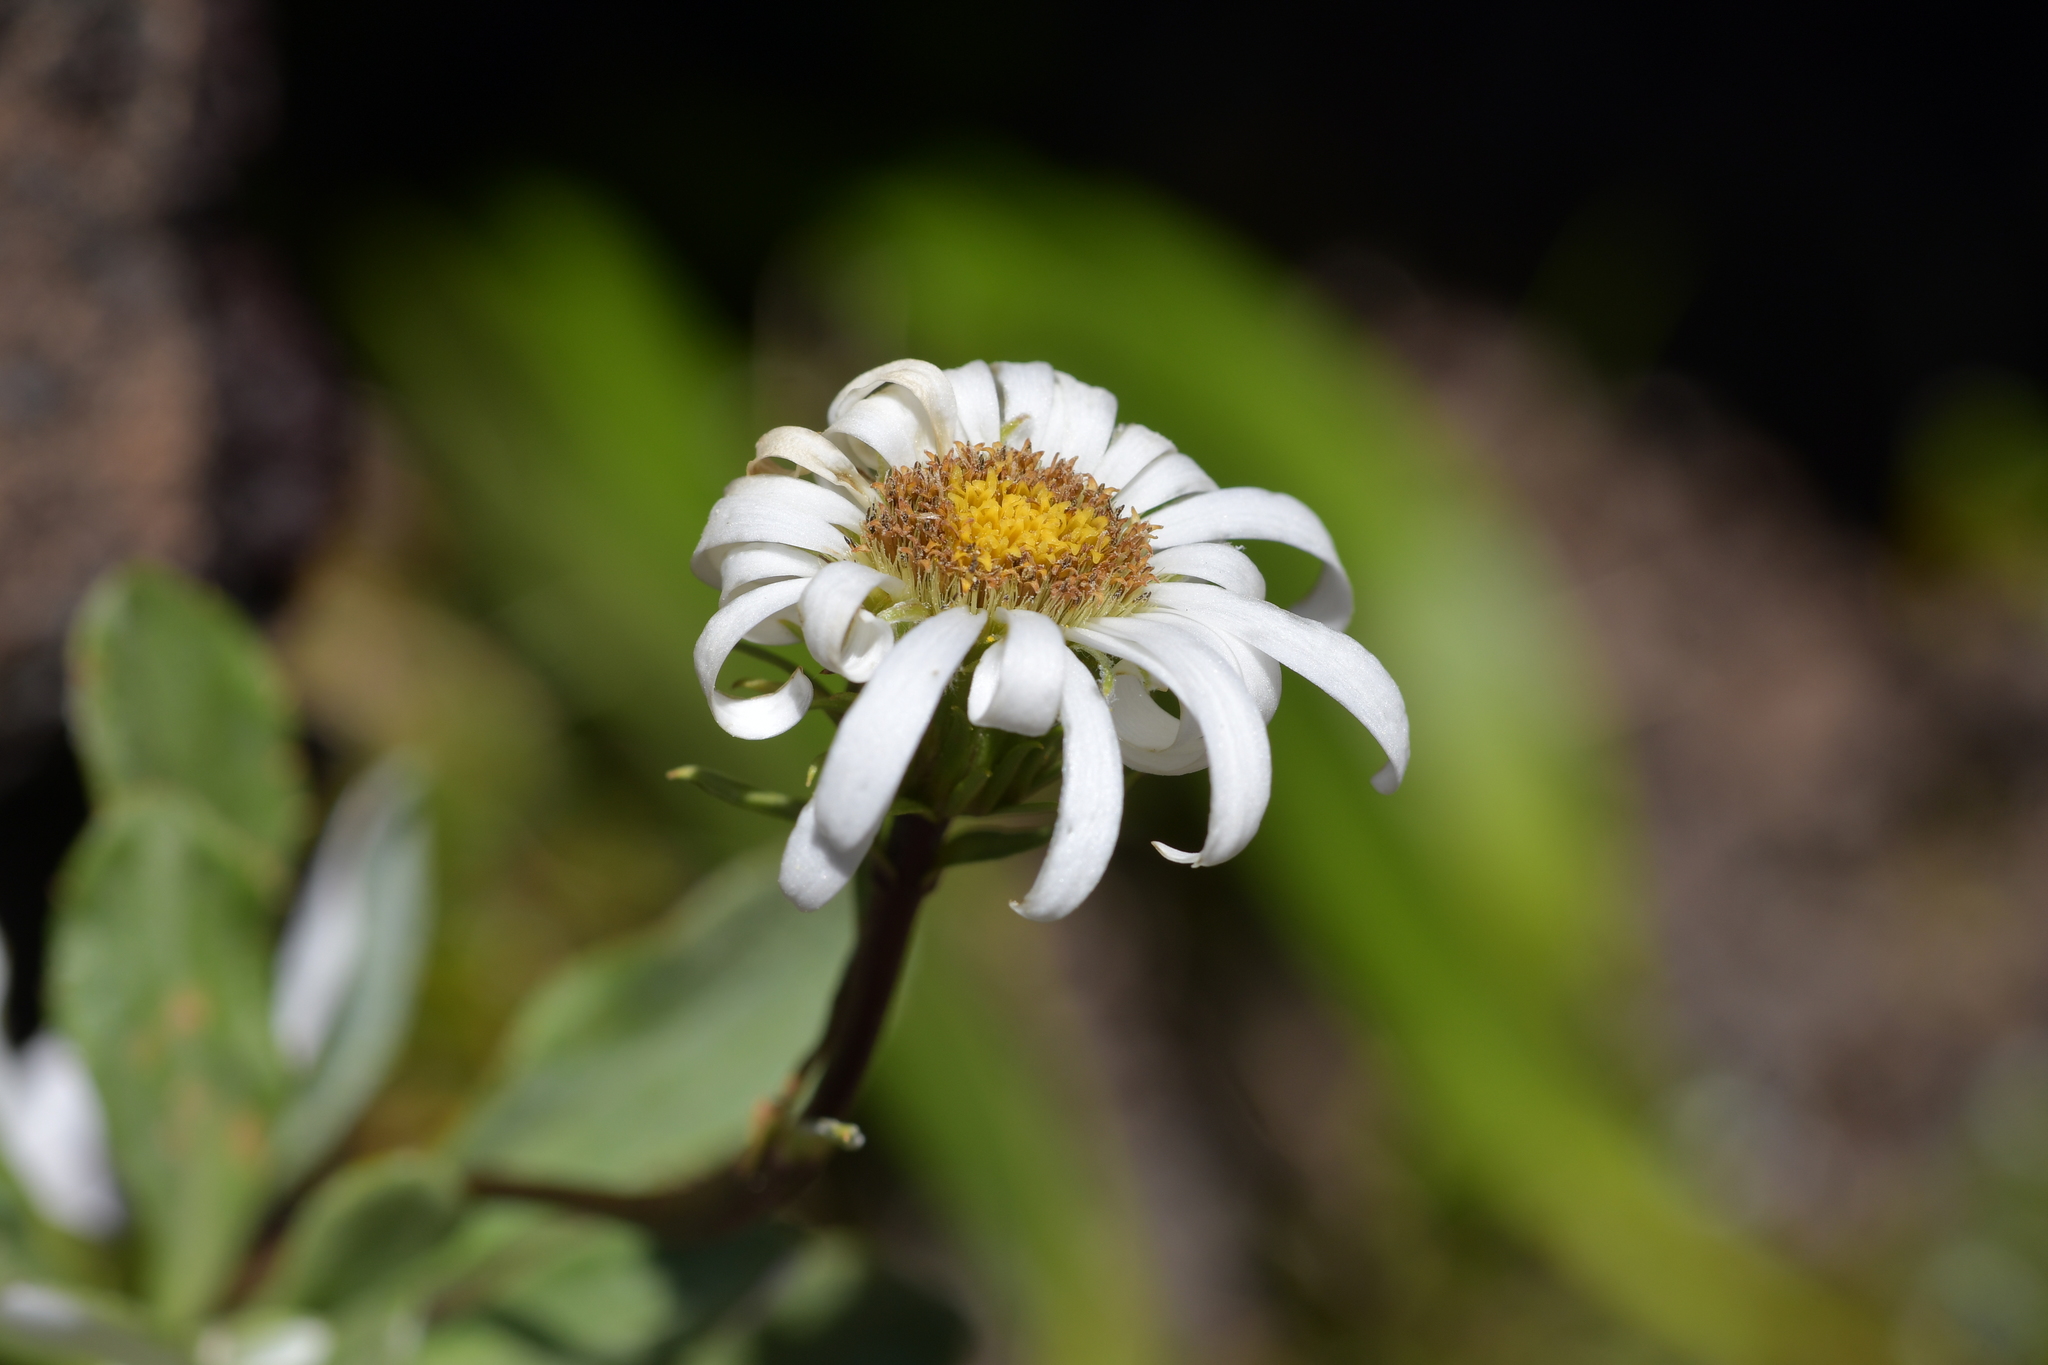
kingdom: Plantae
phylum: Tracheophyta
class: Magnoliopsida
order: Asterales
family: Asteraceae
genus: Celmisia
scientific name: Celmisia durietzii
